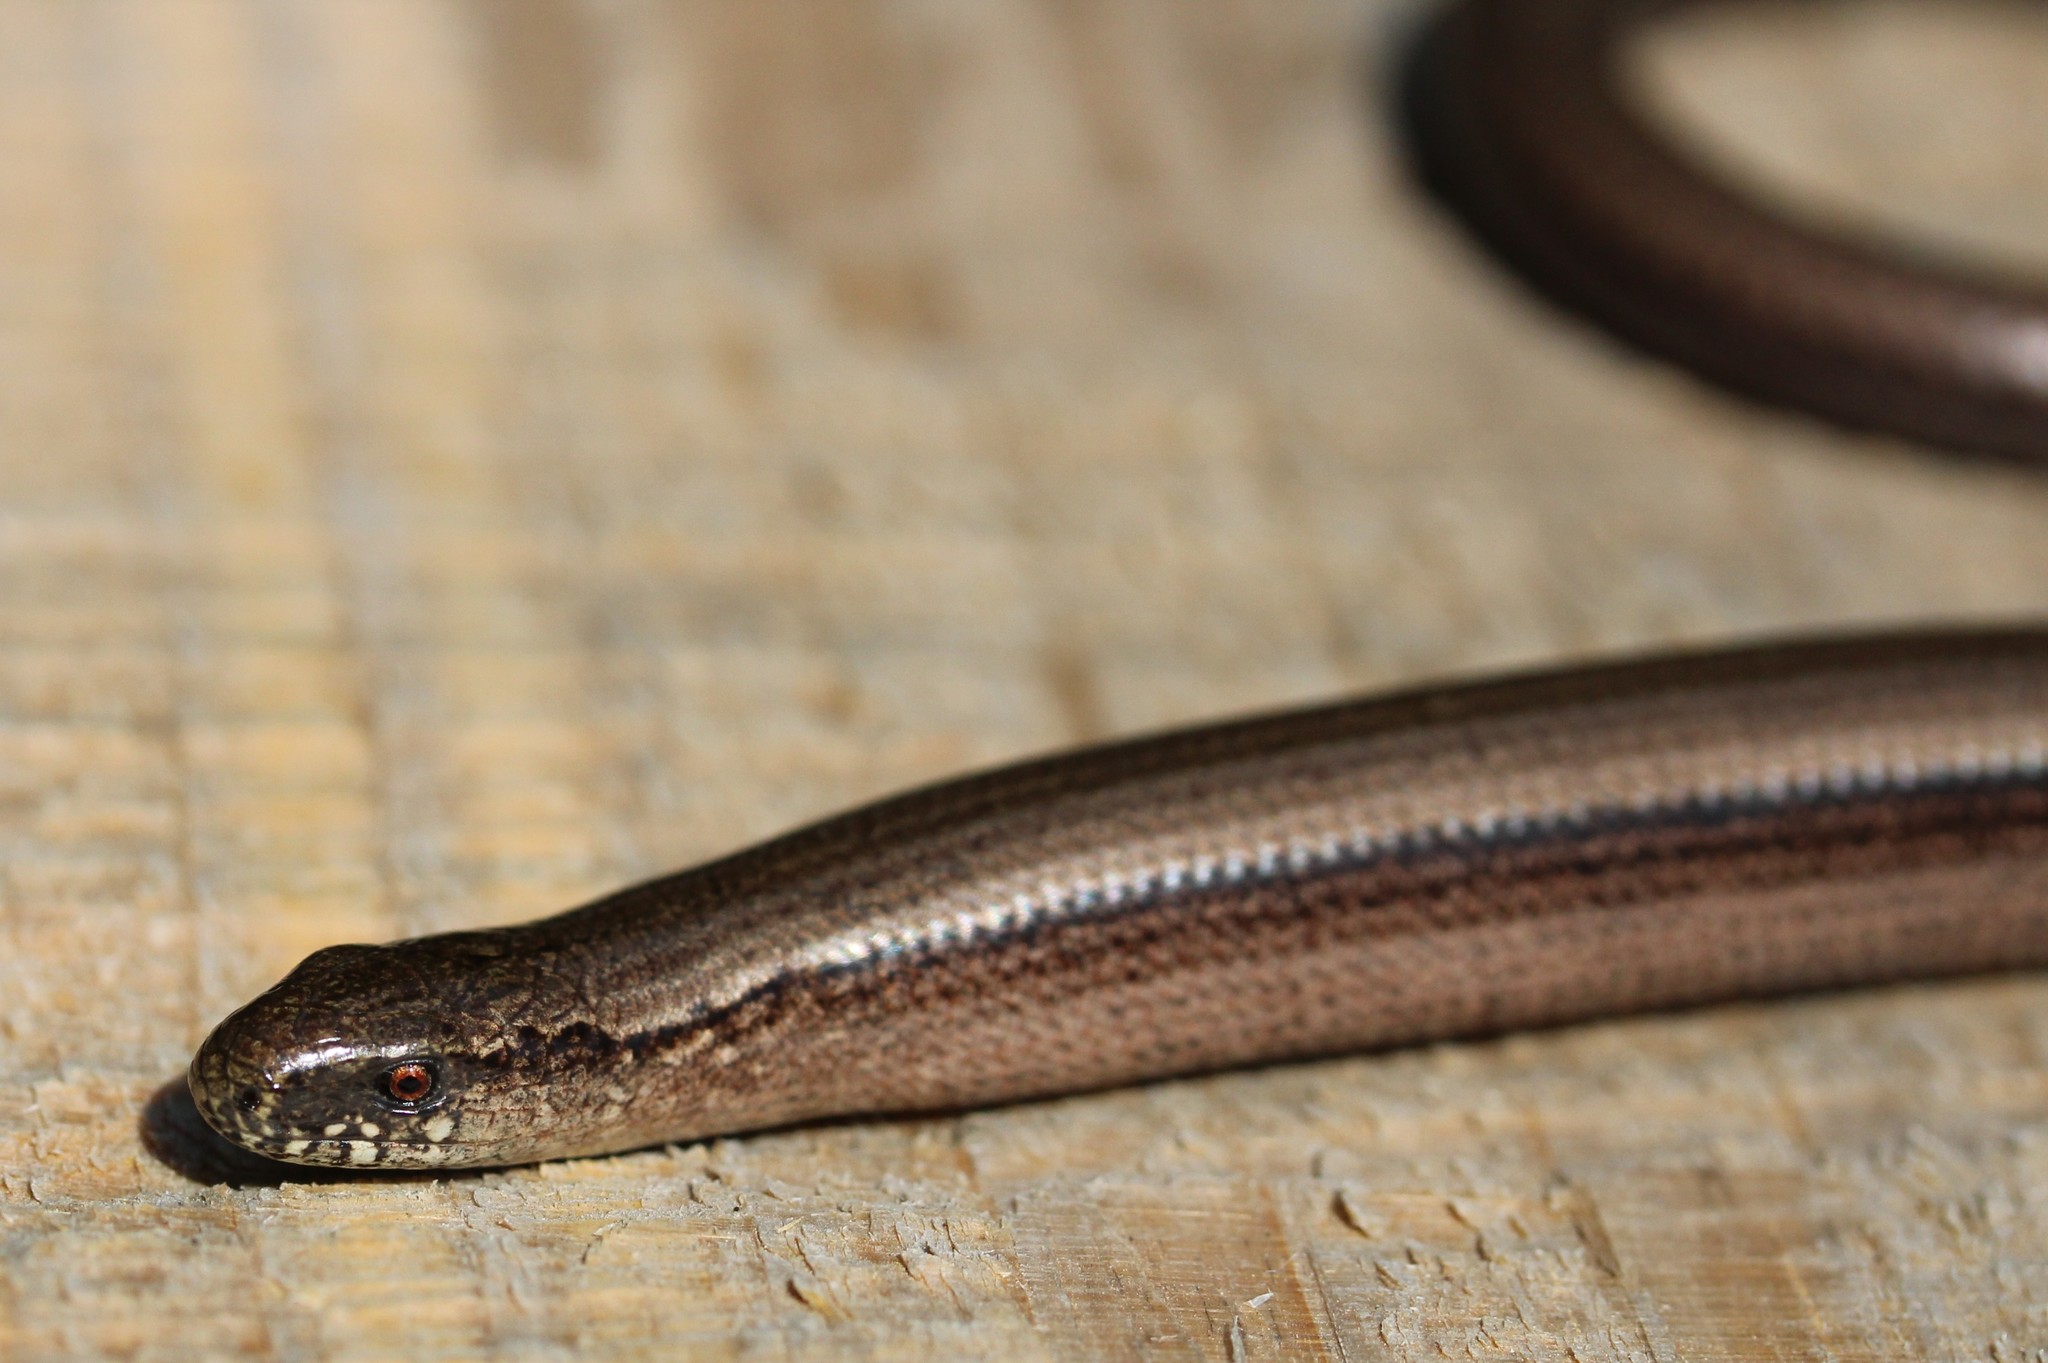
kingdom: Animalia
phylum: Chordata
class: Squamata
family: Anguidae
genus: Anguis
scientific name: Anguis fragilis
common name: Slow worm
